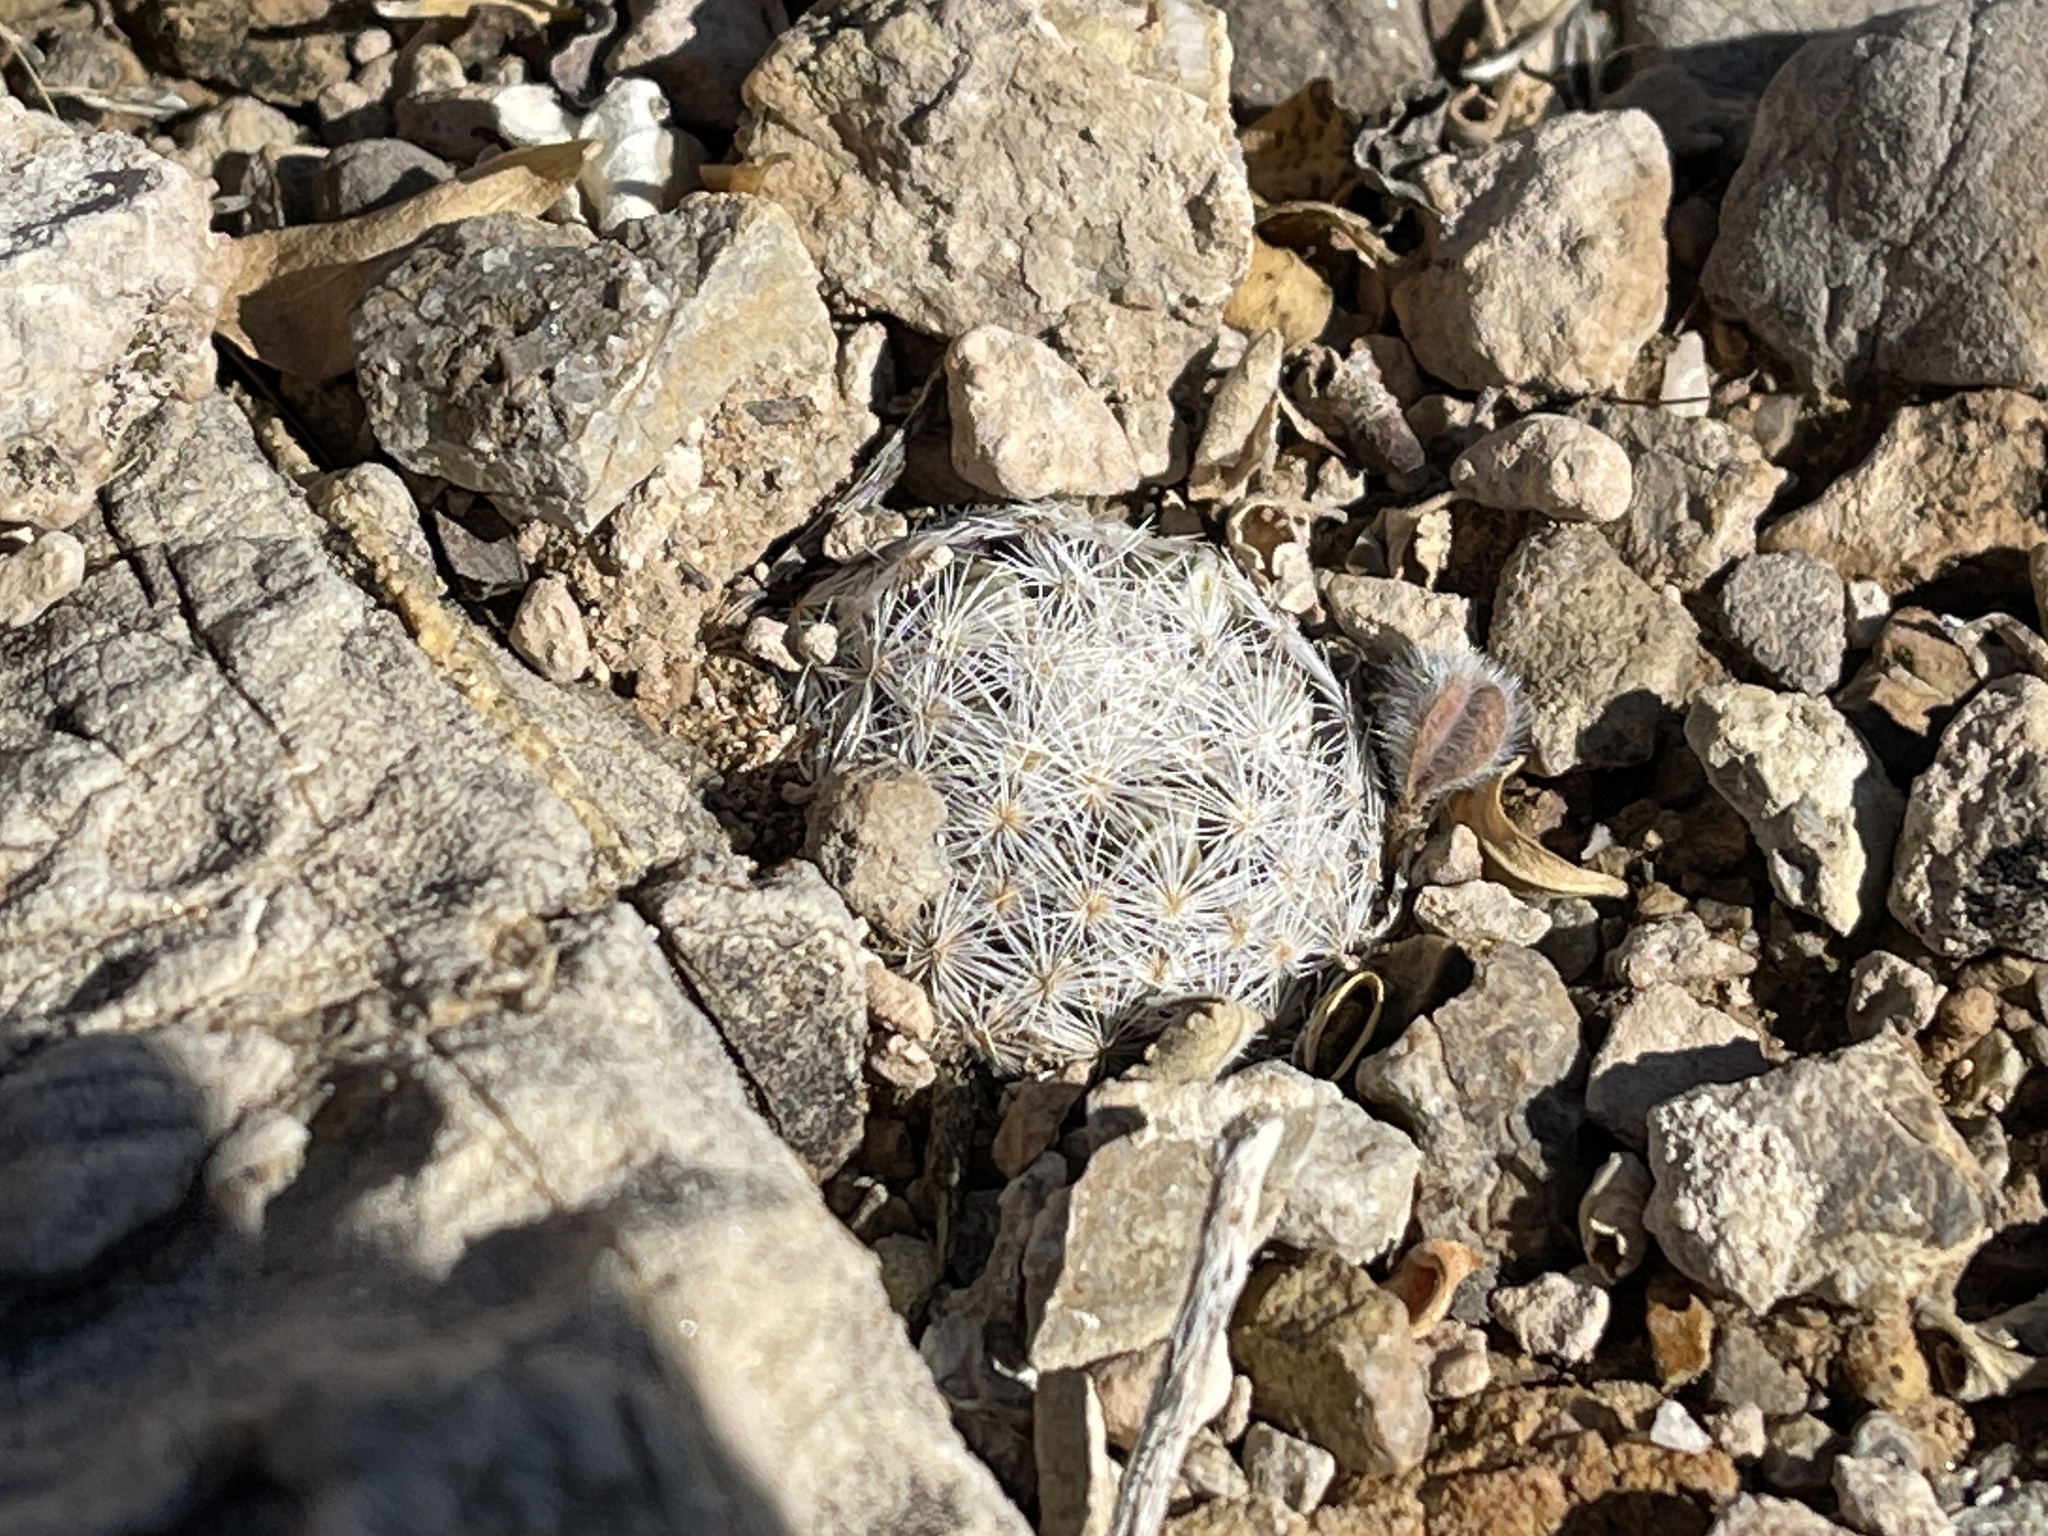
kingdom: Plantae
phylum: Tracheophyta
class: Magnoliopsida
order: Caryophyllales
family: Cactaceae
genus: Mammillaria
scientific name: Mammillaria lasiacantha
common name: Lace-spine nipple cactus
